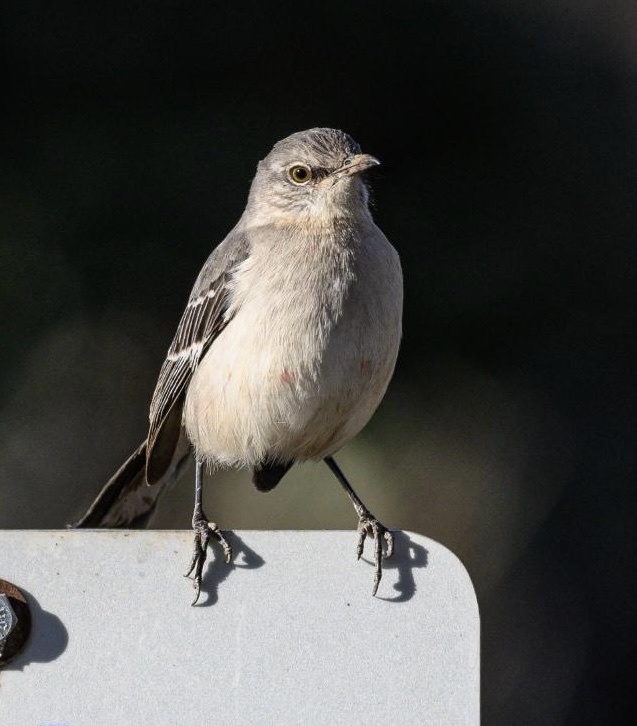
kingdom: Animalia
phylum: Chordata
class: Aves
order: Passeriformes
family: Mimidae
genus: Mimus
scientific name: Mimus polyglottos
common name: Northern mockingbird
